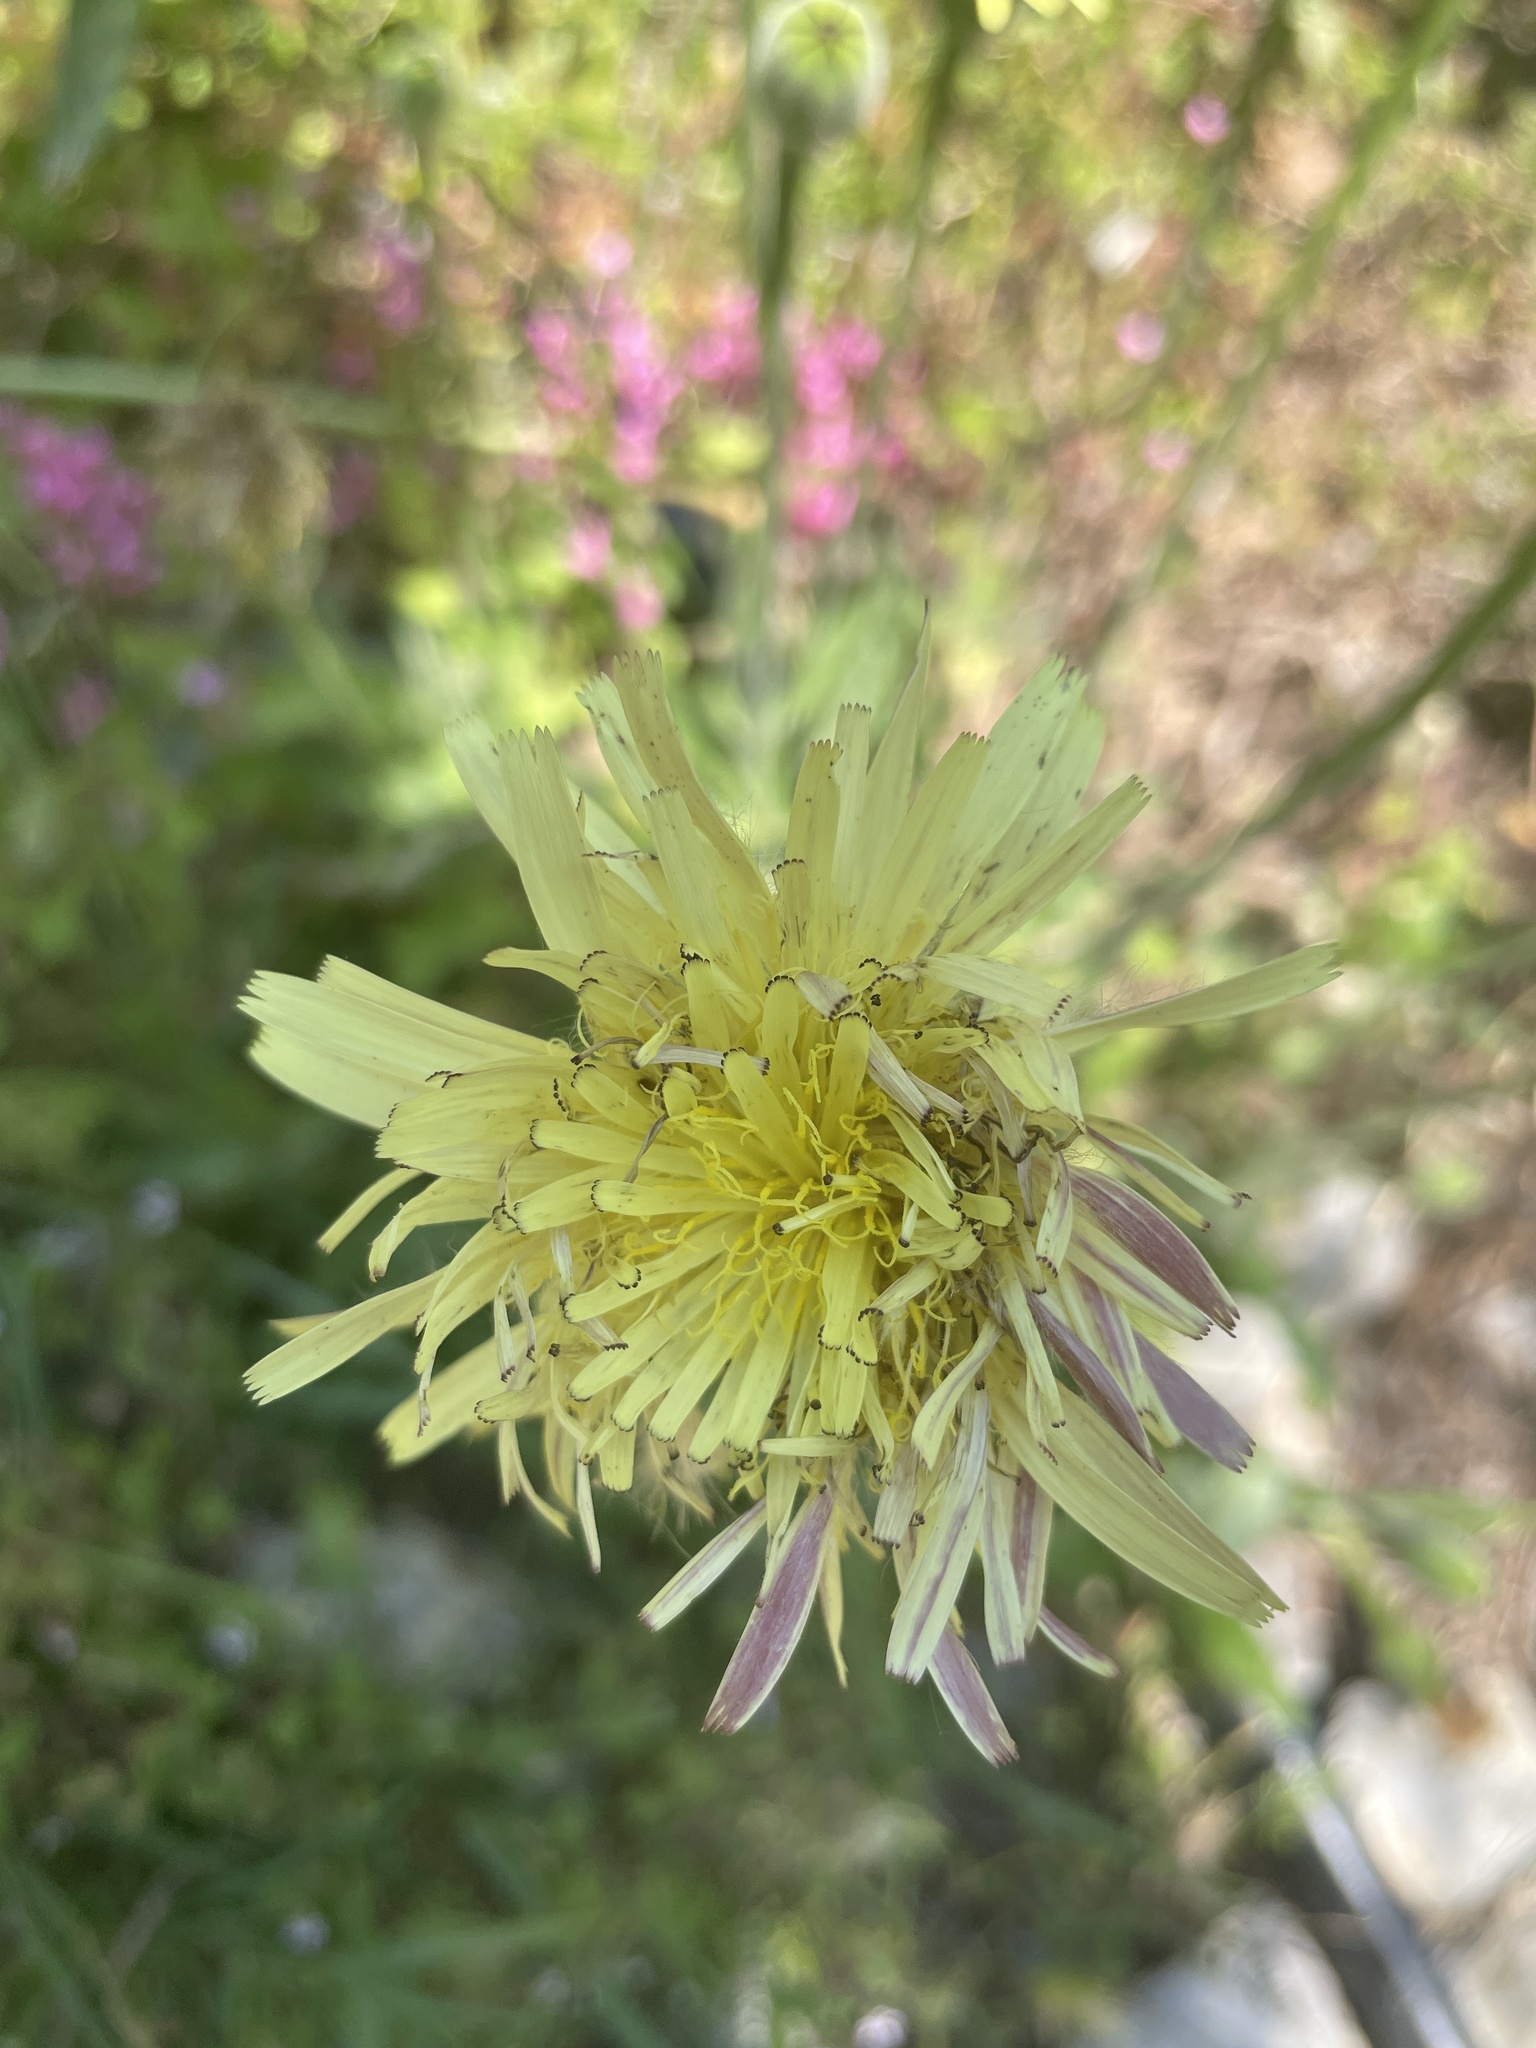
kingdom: Plantae
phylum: Tracheophyta
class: Magnoliopsida
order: Asterales
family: Asteraceae
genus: Urospermum
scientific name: Urospermum dalechampii
